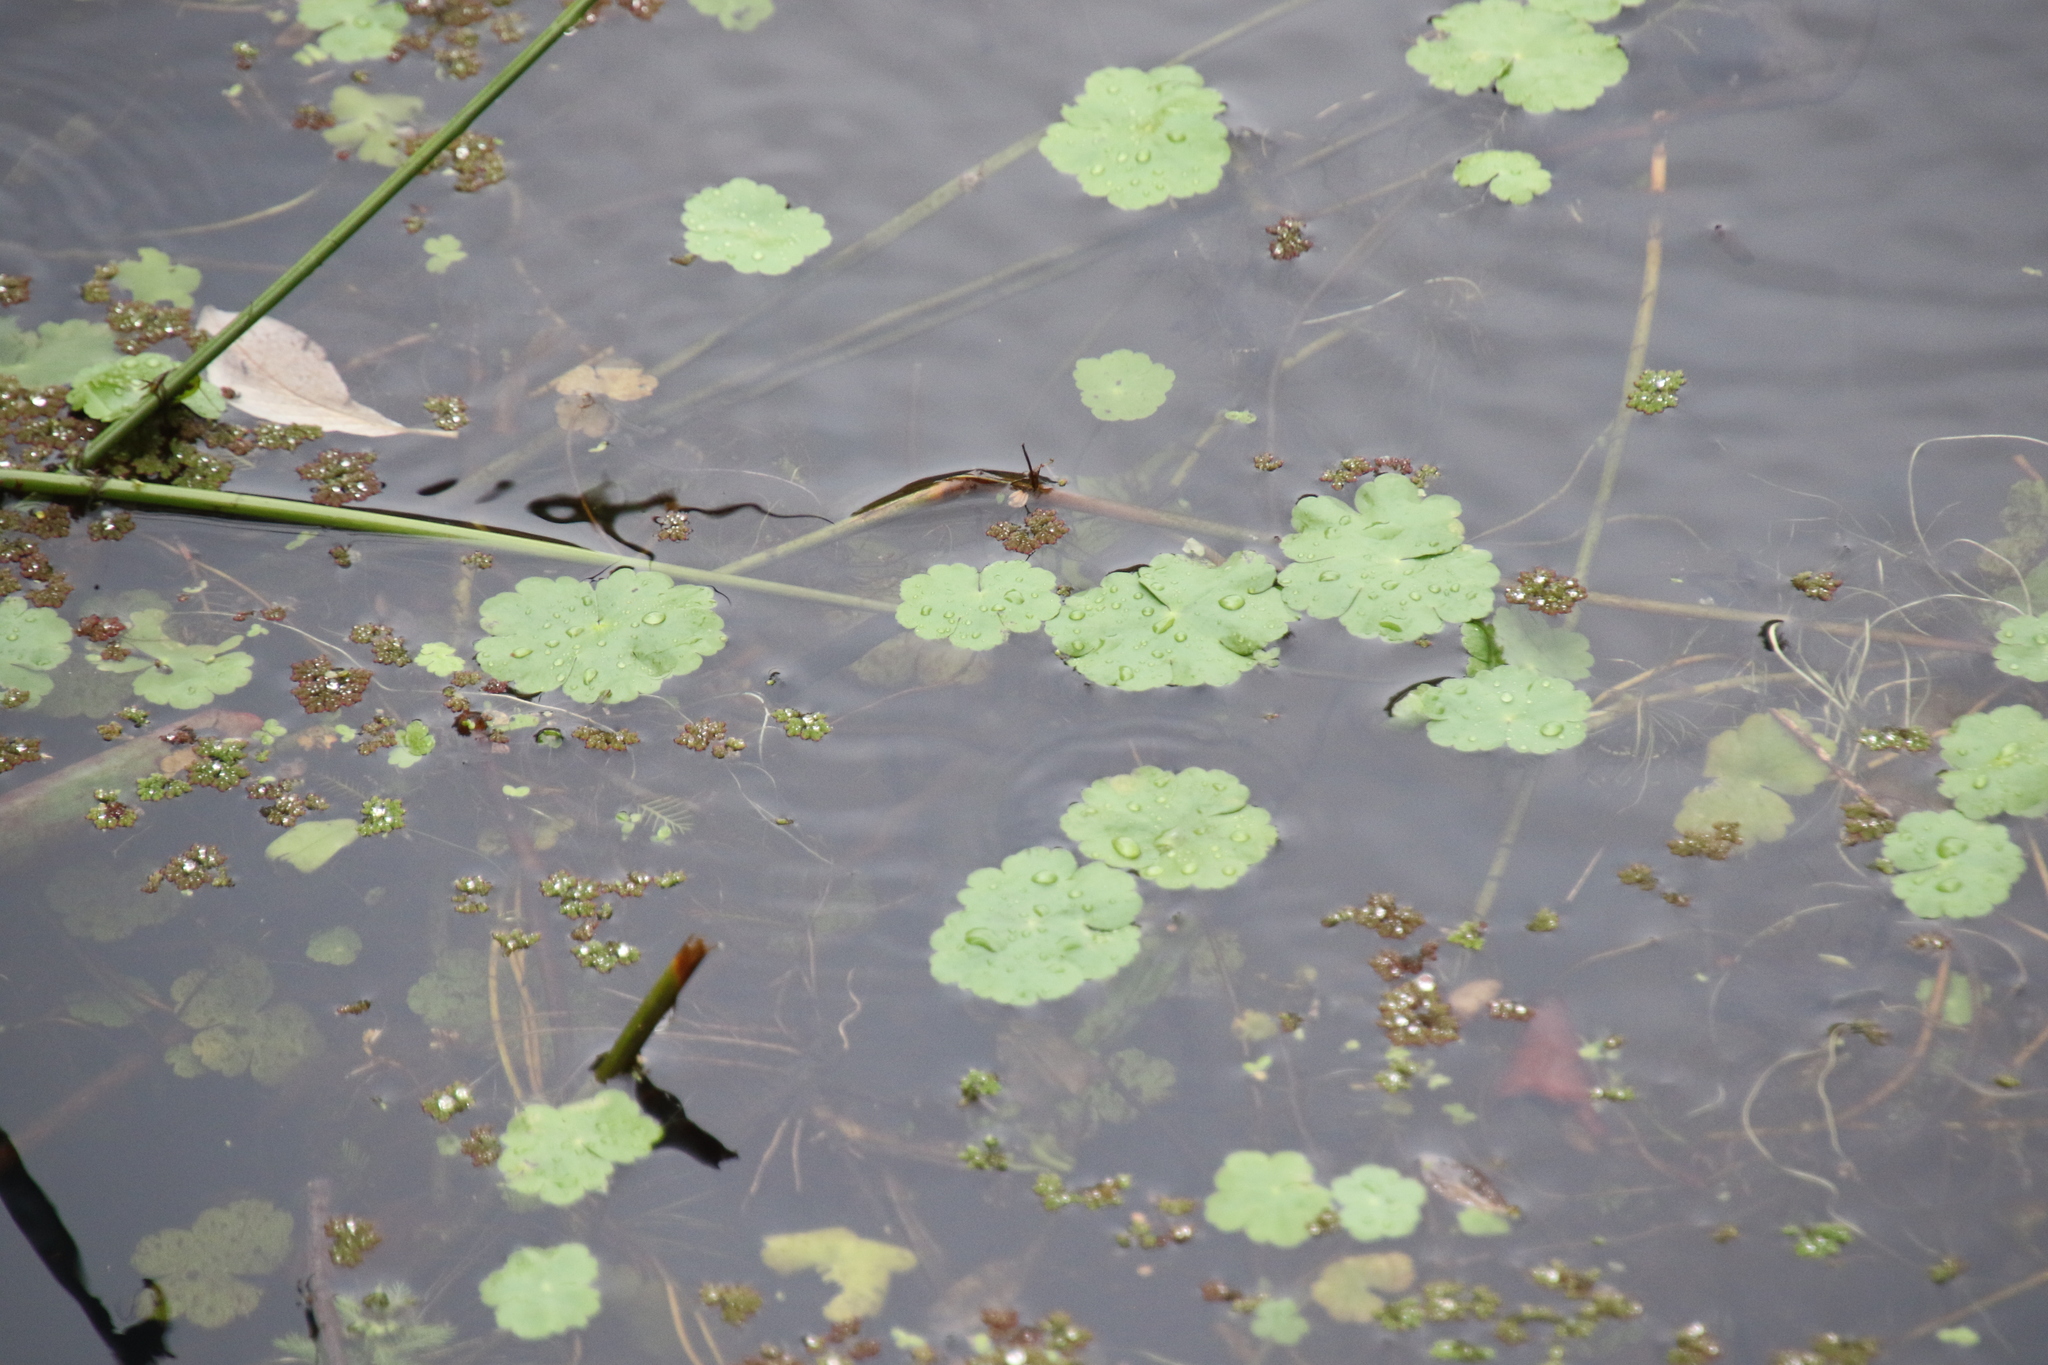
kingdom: Plantae
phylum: Tracheophyta
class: Magnoliopsida
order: Apiales
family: Araliaceae
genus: Hydrocotyle
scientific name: Hydrocotyle ranunculoides
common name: Floating pennywort
